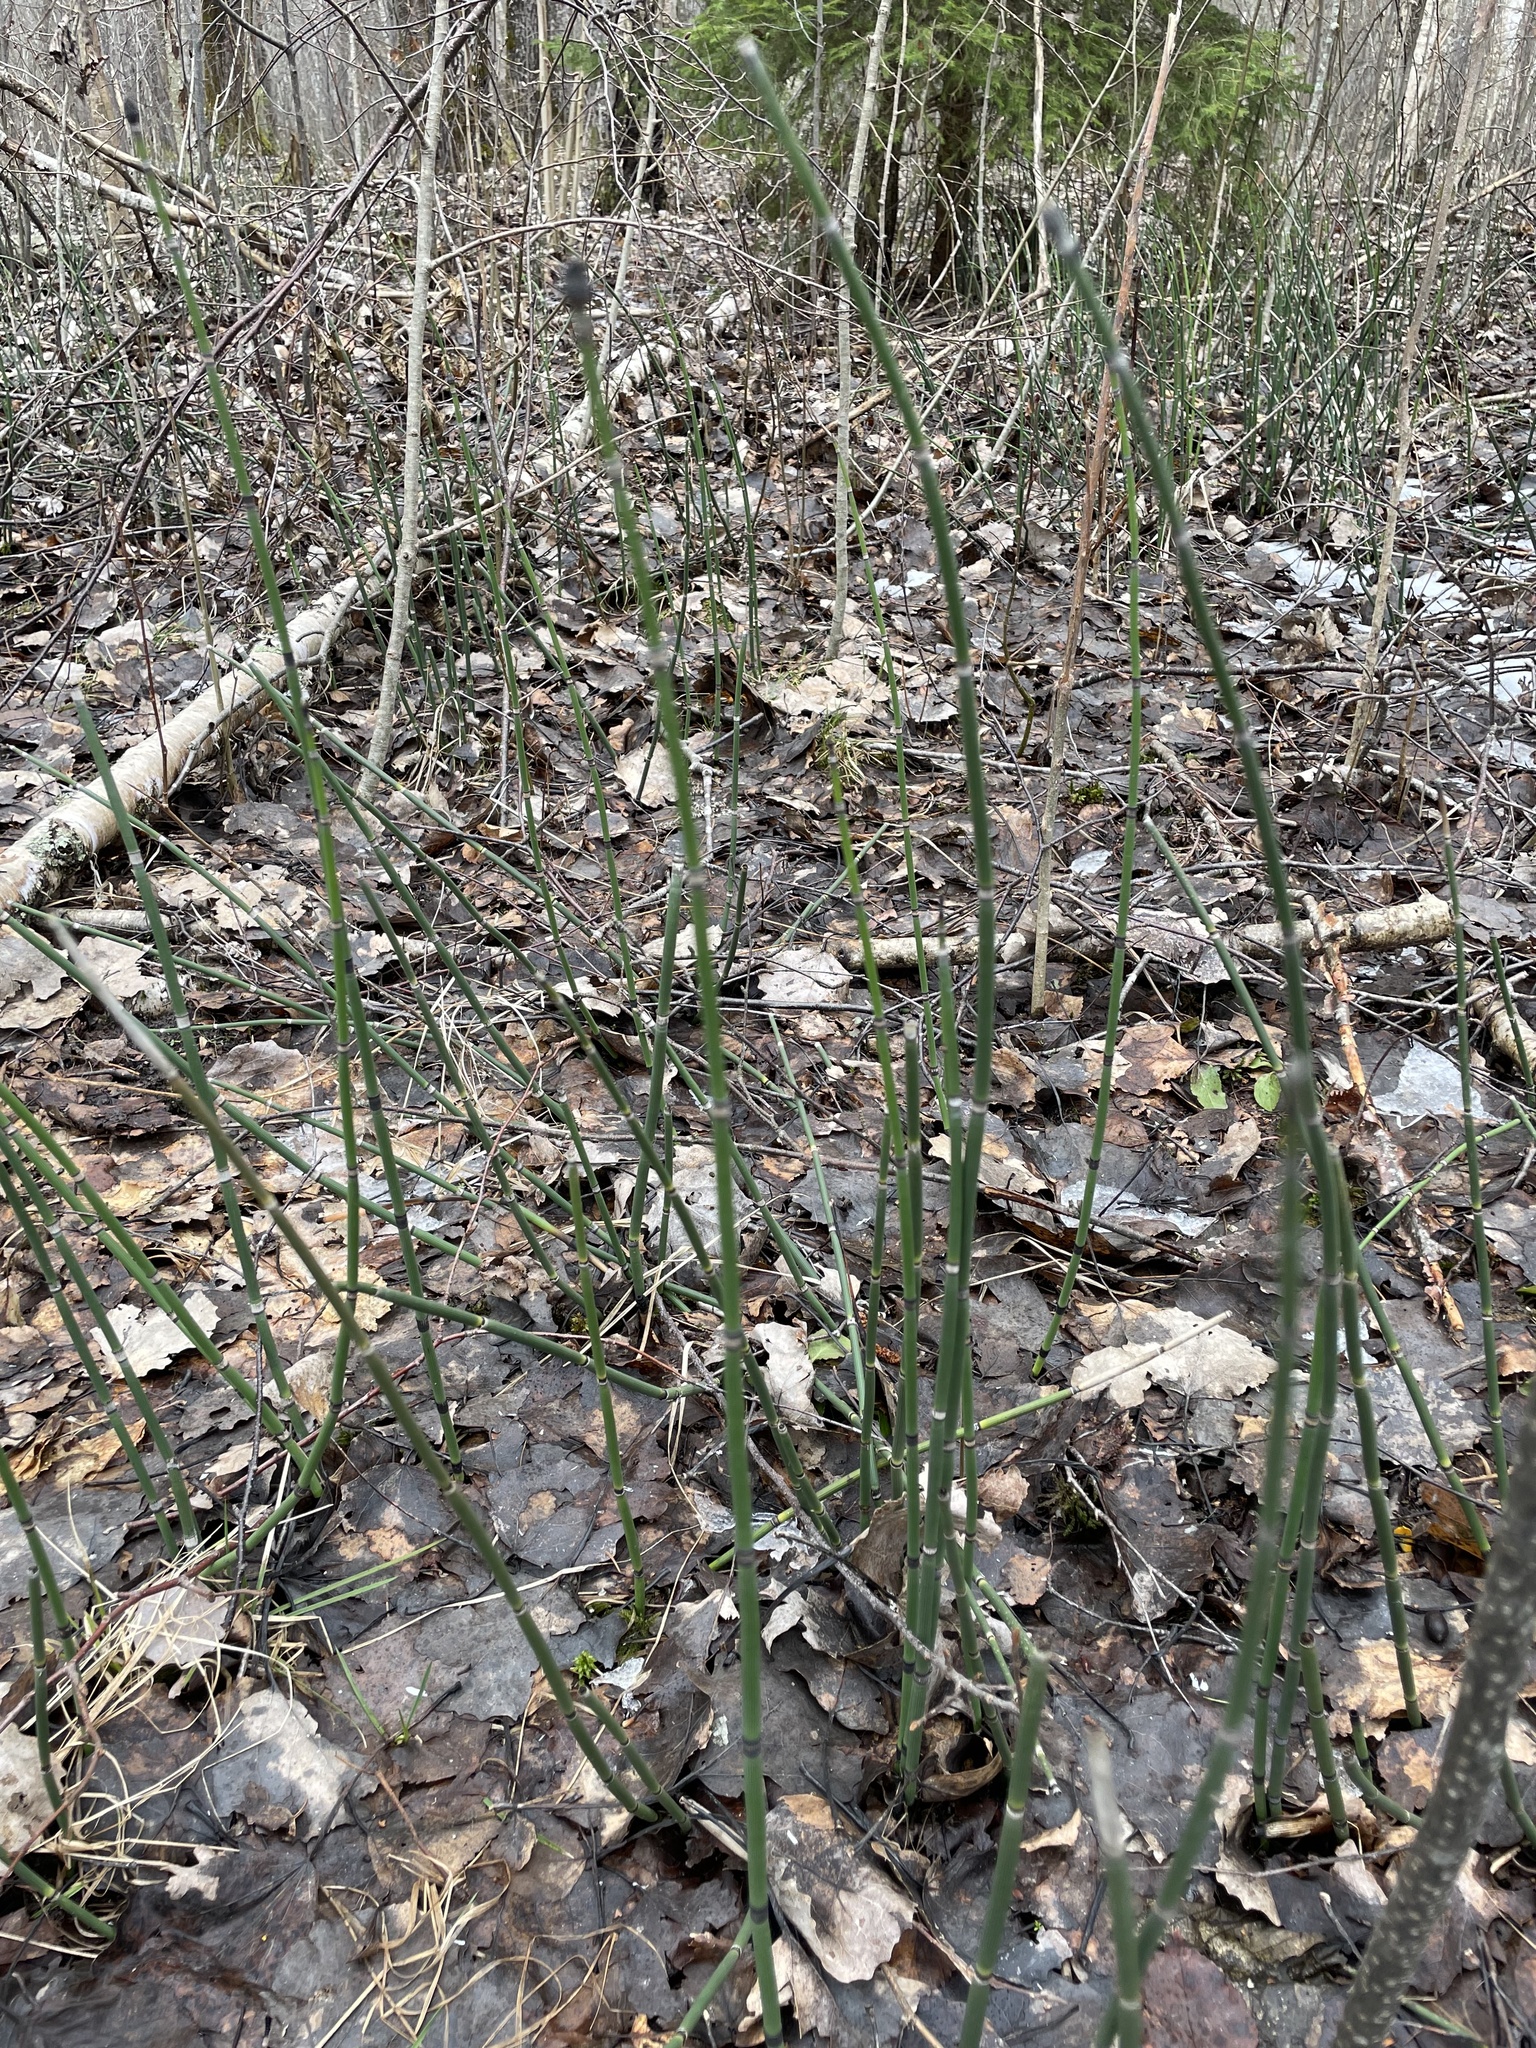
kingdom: Plantae
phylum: Tracheophyta
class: Polypodiopsida
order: Equisetales
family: Equisetaceae
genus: Equisetum
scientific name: Equisetum hyemale
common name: Rough horsetail
